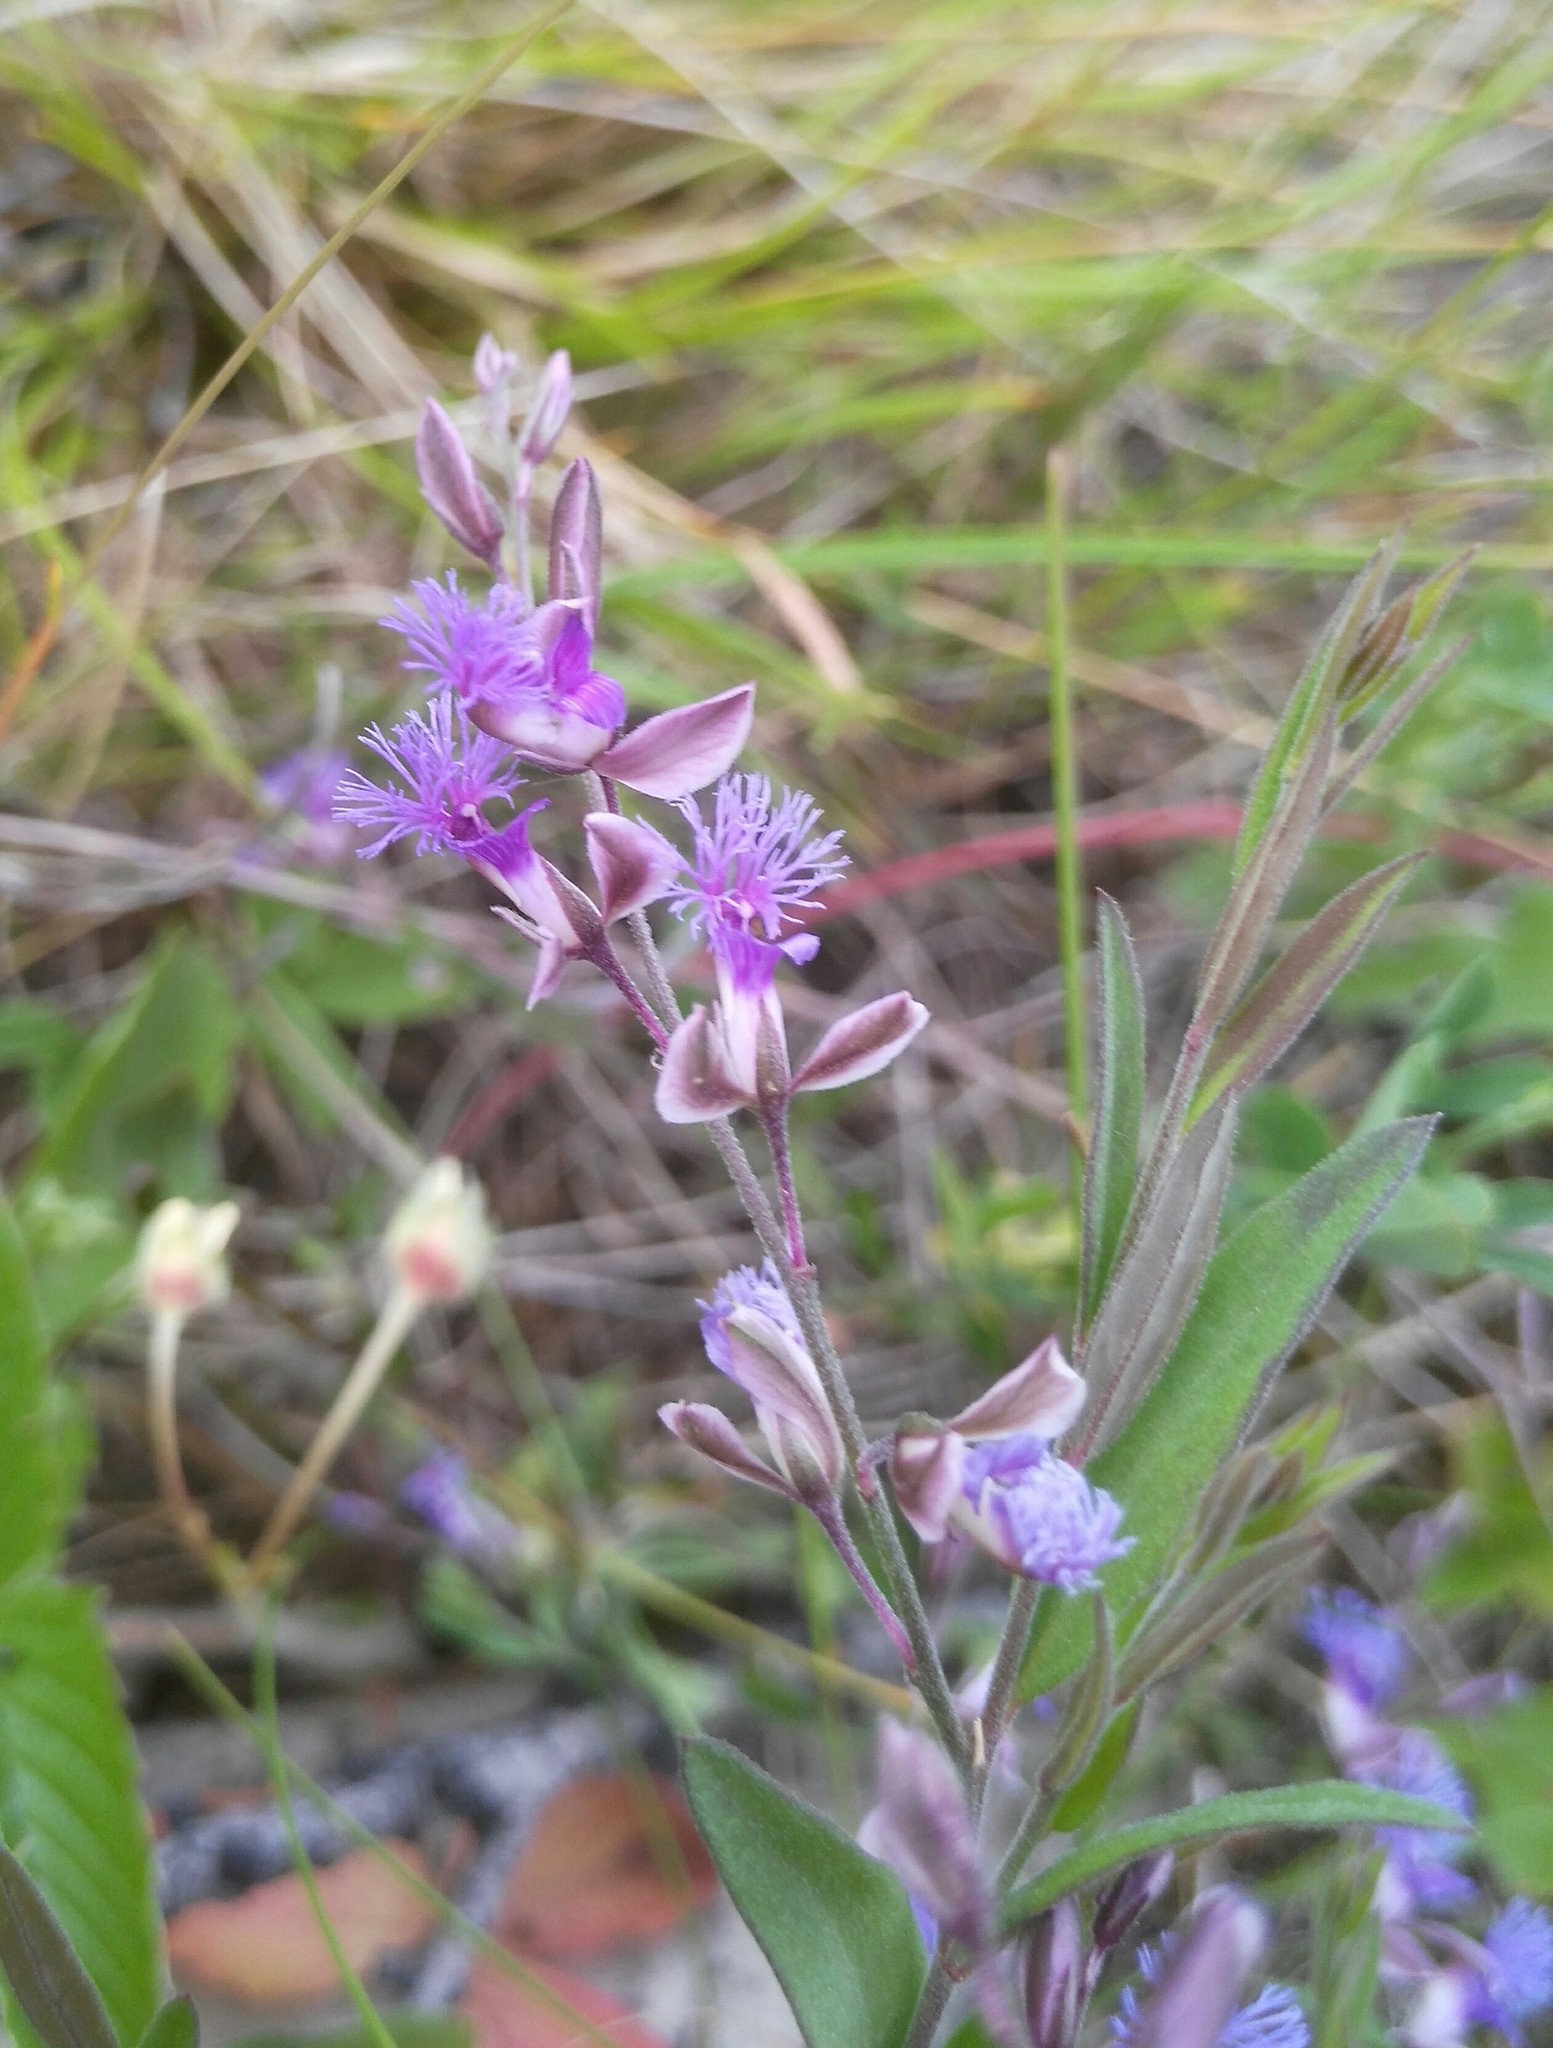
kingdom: Plantae
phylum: Tracheophyta
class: Magnoliopsida
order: Fabales
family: Polygalaceae
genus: Polygala
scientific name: Polygala sibirica
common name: Siberian polygala
